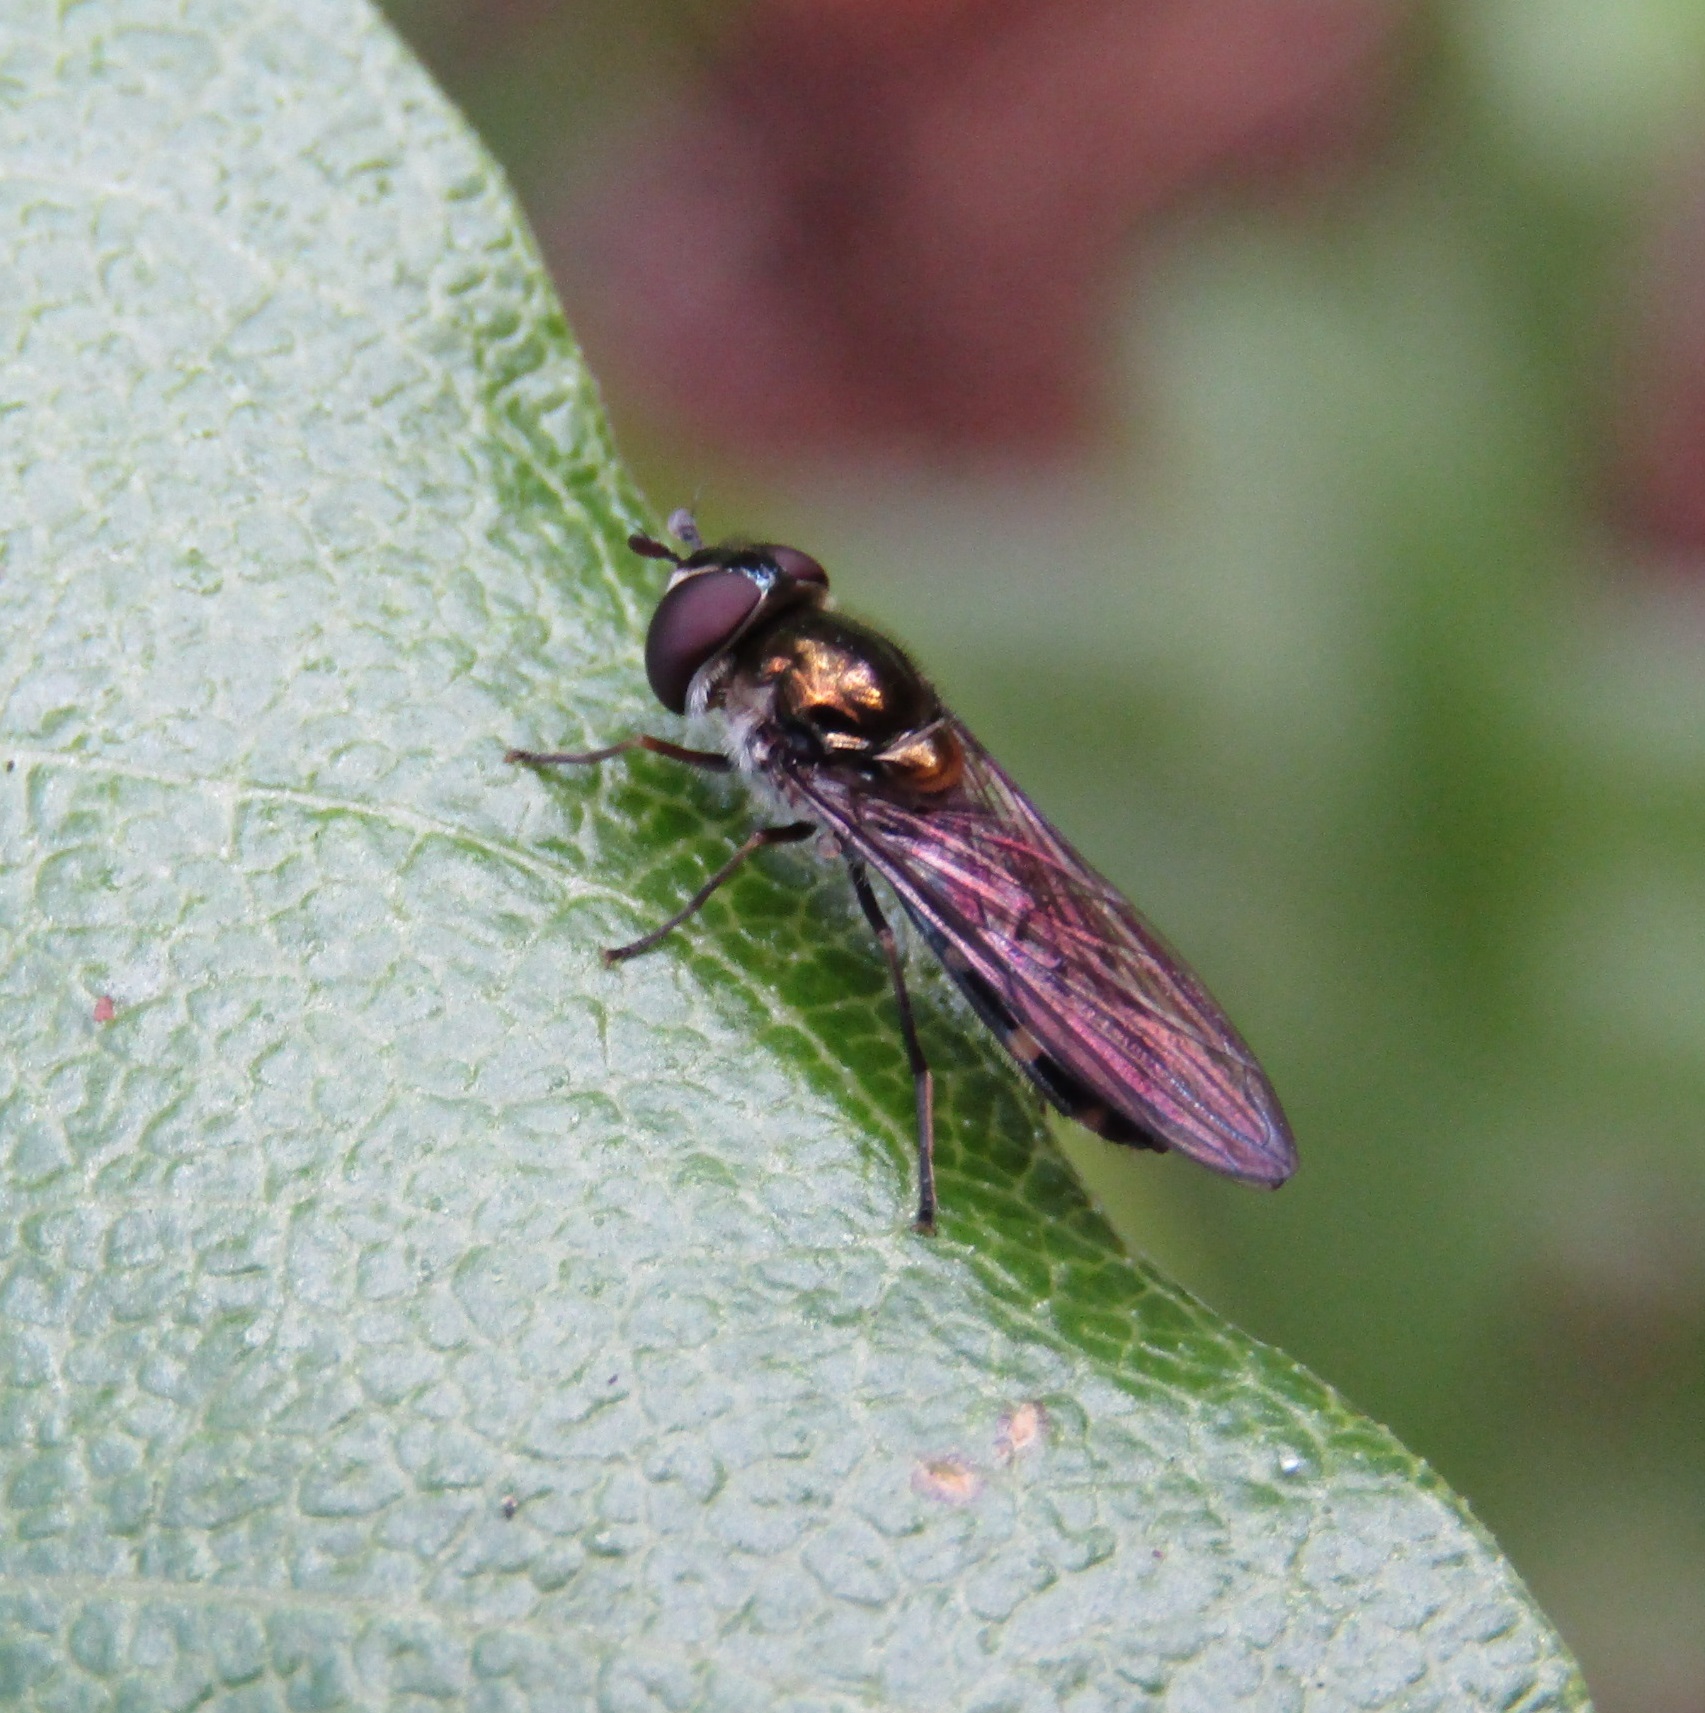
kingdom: Animalia
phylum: Arthropoda
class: Insecta
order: Diptera
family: Syrphidae
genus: Melangyna
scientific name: Melangyna novaezelandiae
